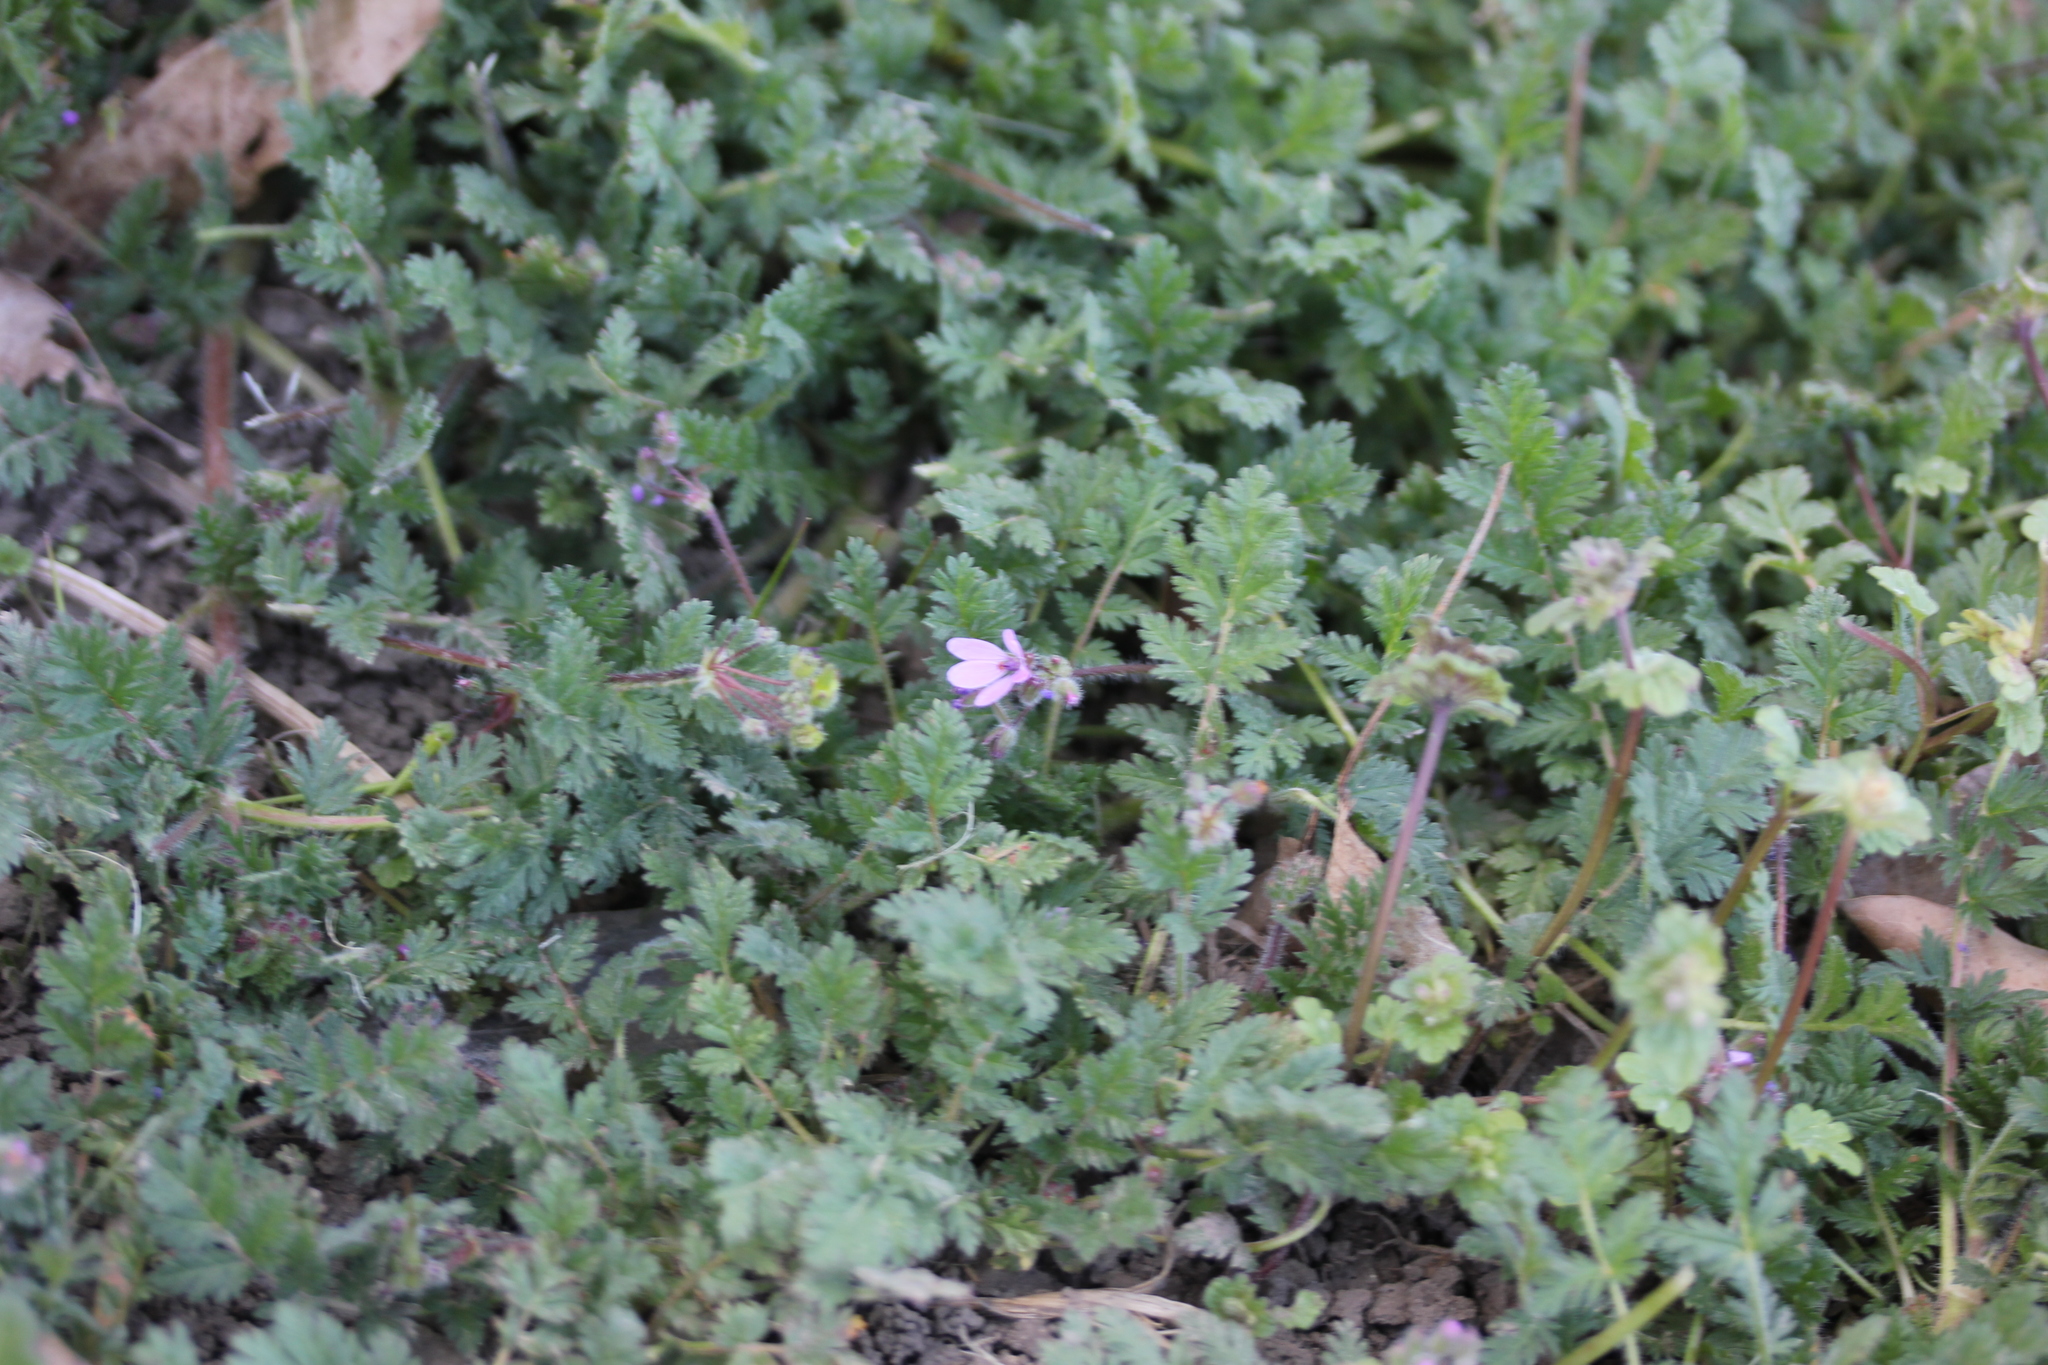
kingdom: Plantae
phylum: Tracheophyta
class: Magnoliopsida
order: Geraniales
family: Geraniaceae
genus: Erodium
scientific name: Erodium cicutarium
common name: Common stork's-bill
